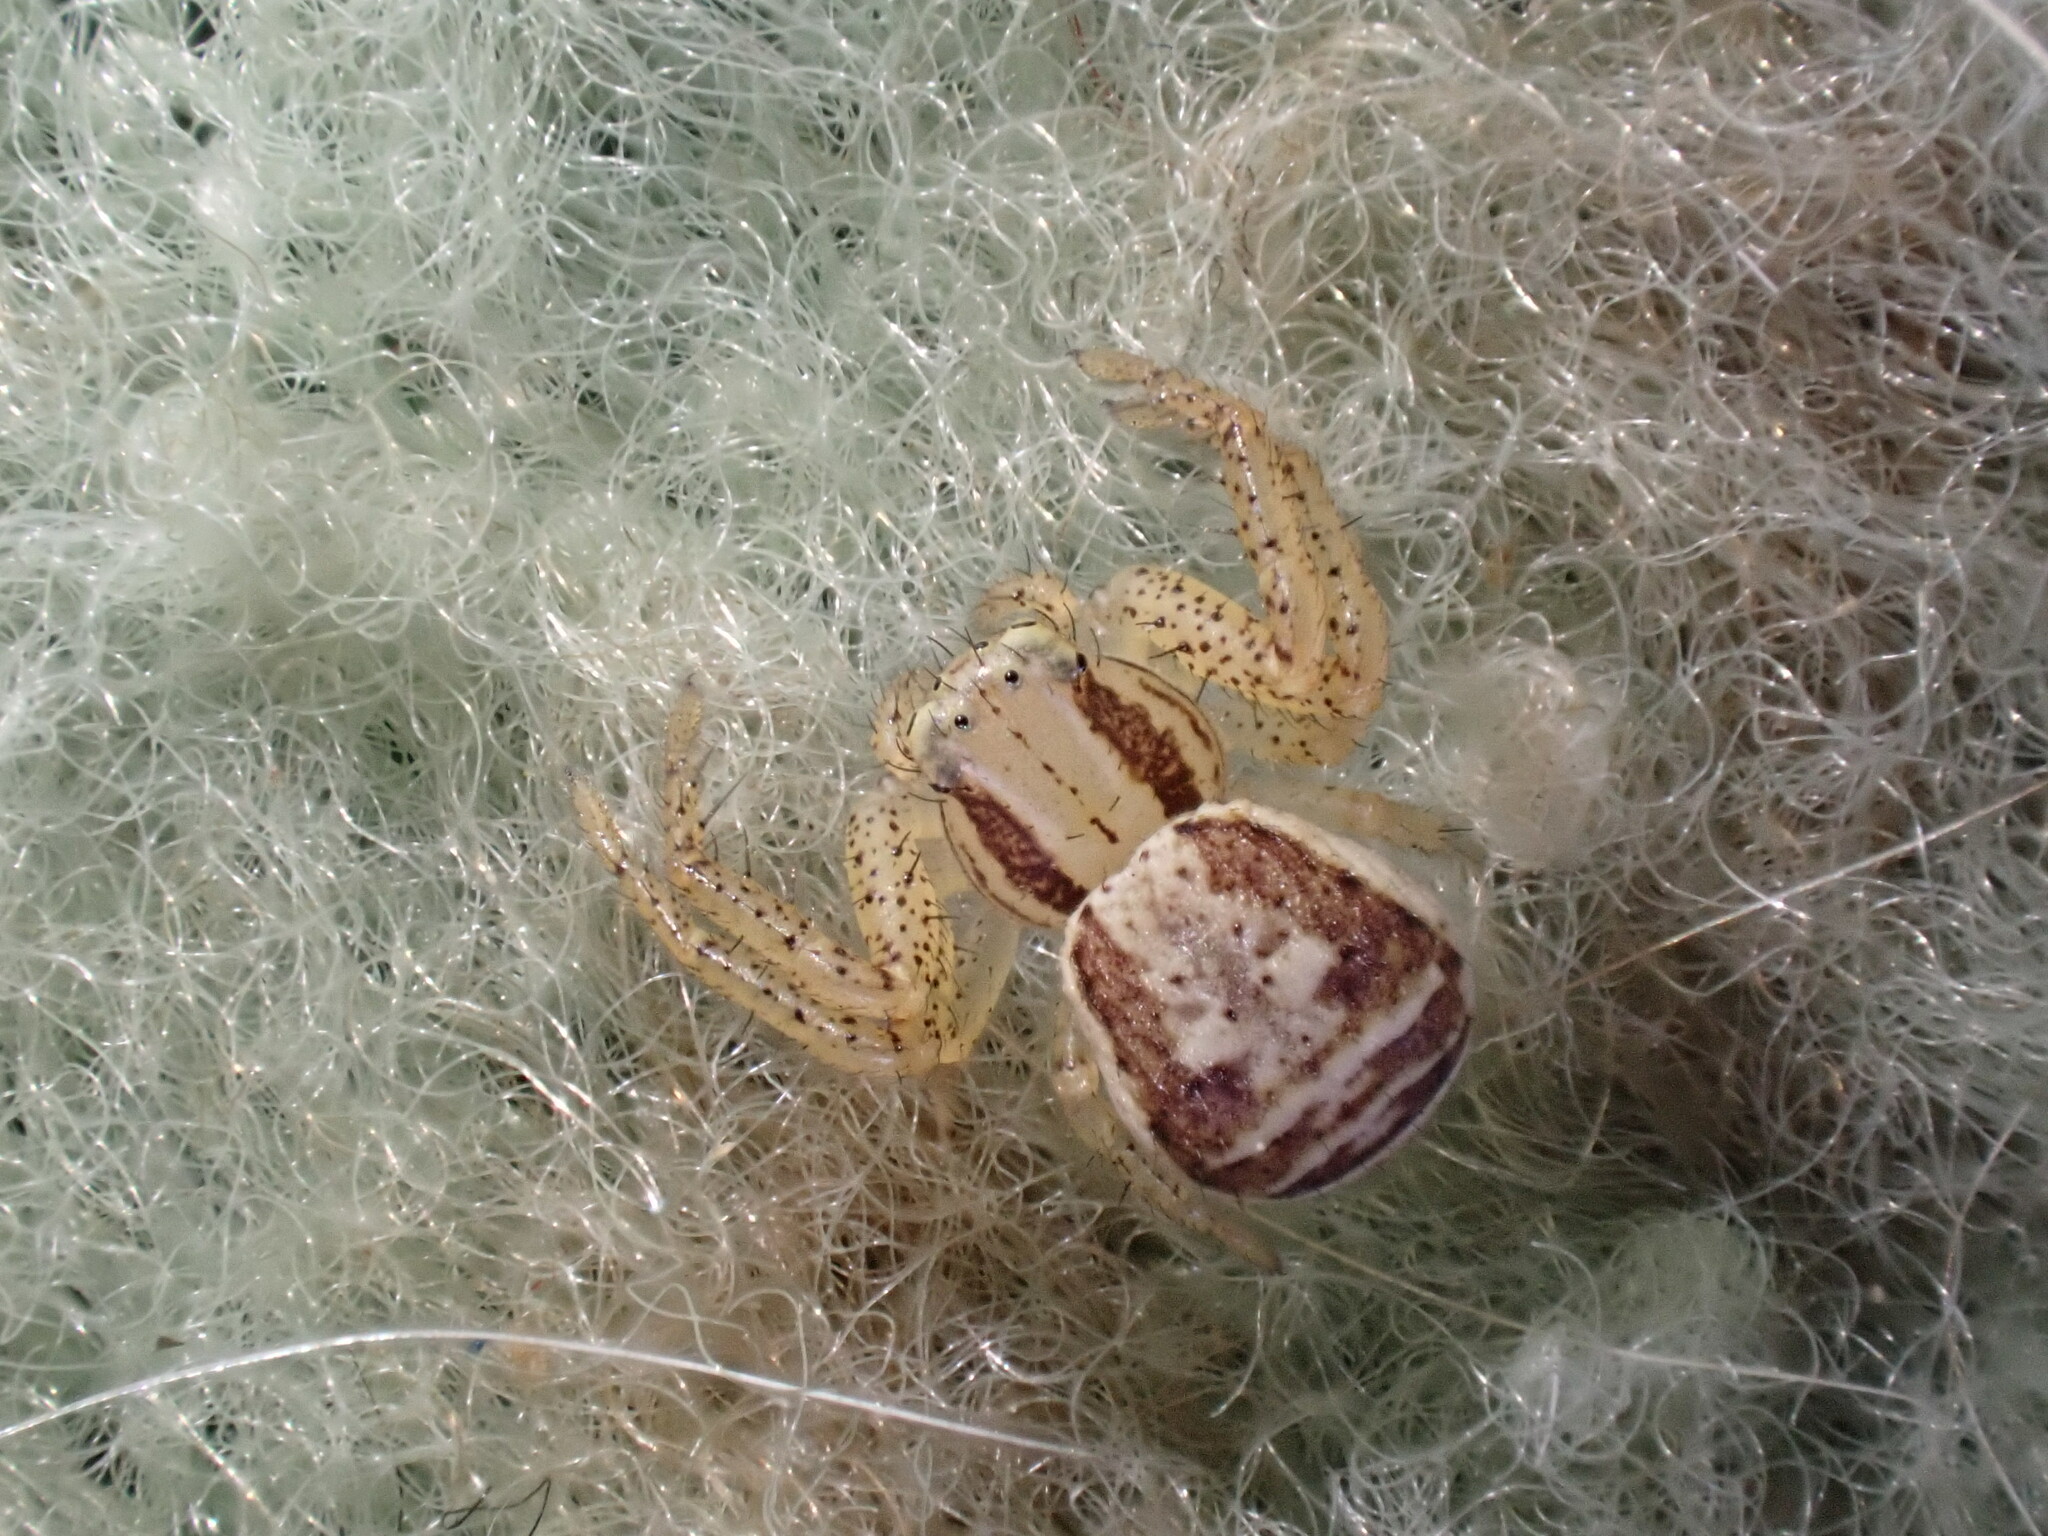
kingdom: Animalia
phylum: Arthropoda
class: Arachnida
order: Araneae
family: Thomisidae
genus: Xysticus
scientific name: Xysticus ulmi
